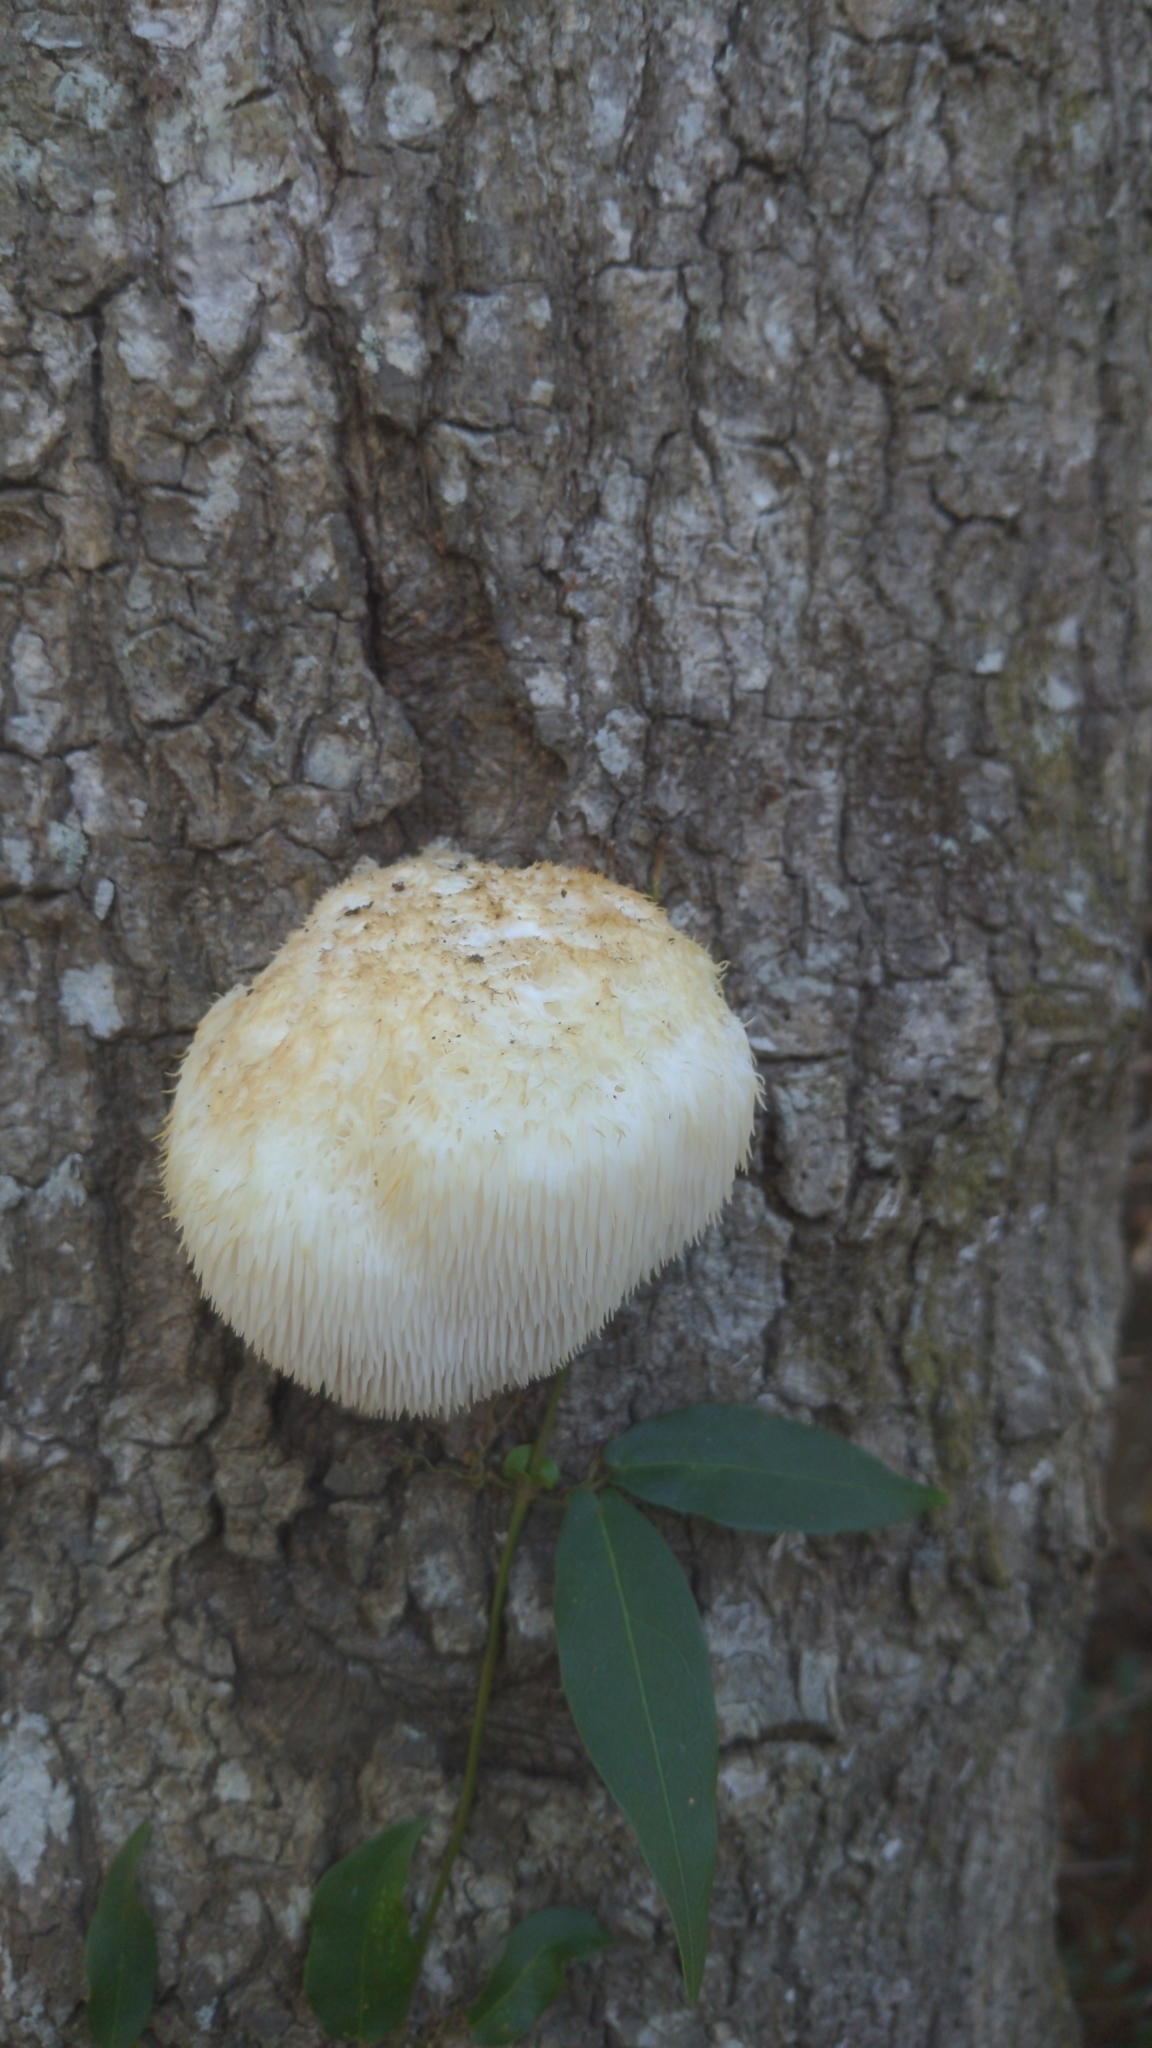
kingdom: Fungi
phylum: Basidiomycota
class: Agaricomycetes
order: Russulales
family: Hericiaceae
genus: Hericium
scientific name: Hericium erinaceus
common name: Bearded tooth
